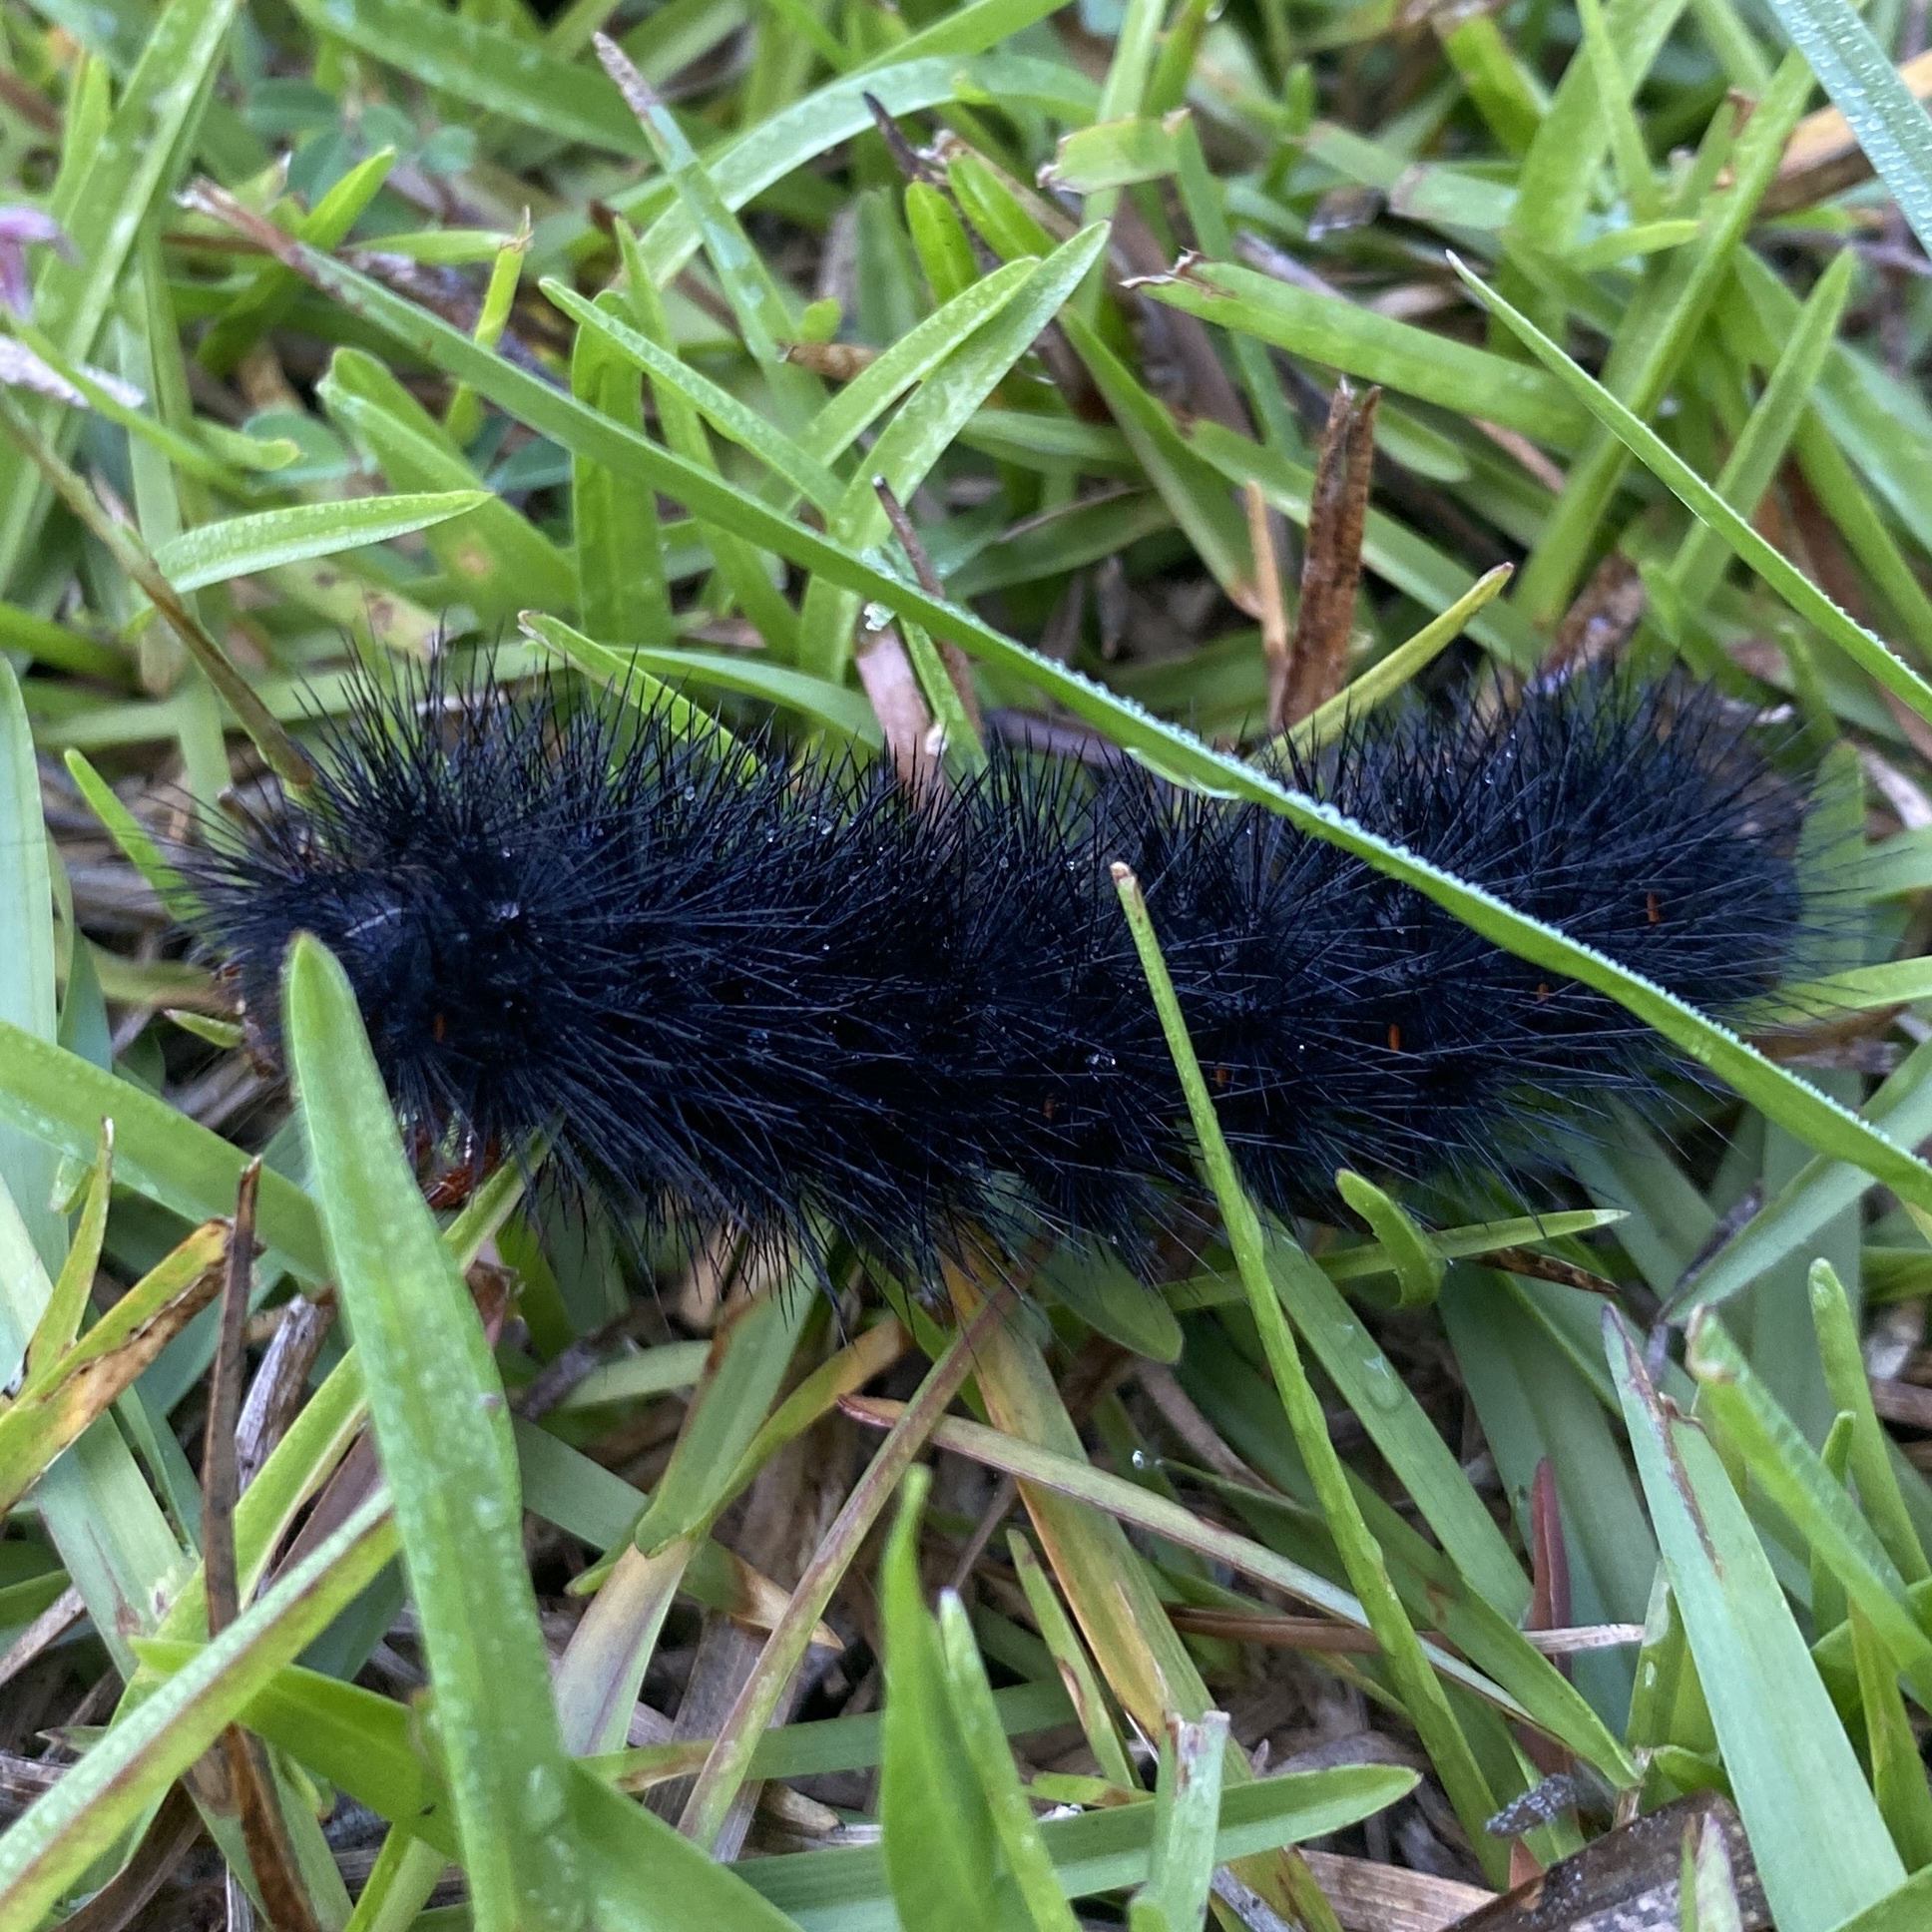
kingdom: Animalia
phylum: Arthropoda
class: Insecta
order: Lepidoptera
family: Erebidae
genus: Hypercompe
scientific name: Hypercompe scribonia
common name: Giant leopard moth
